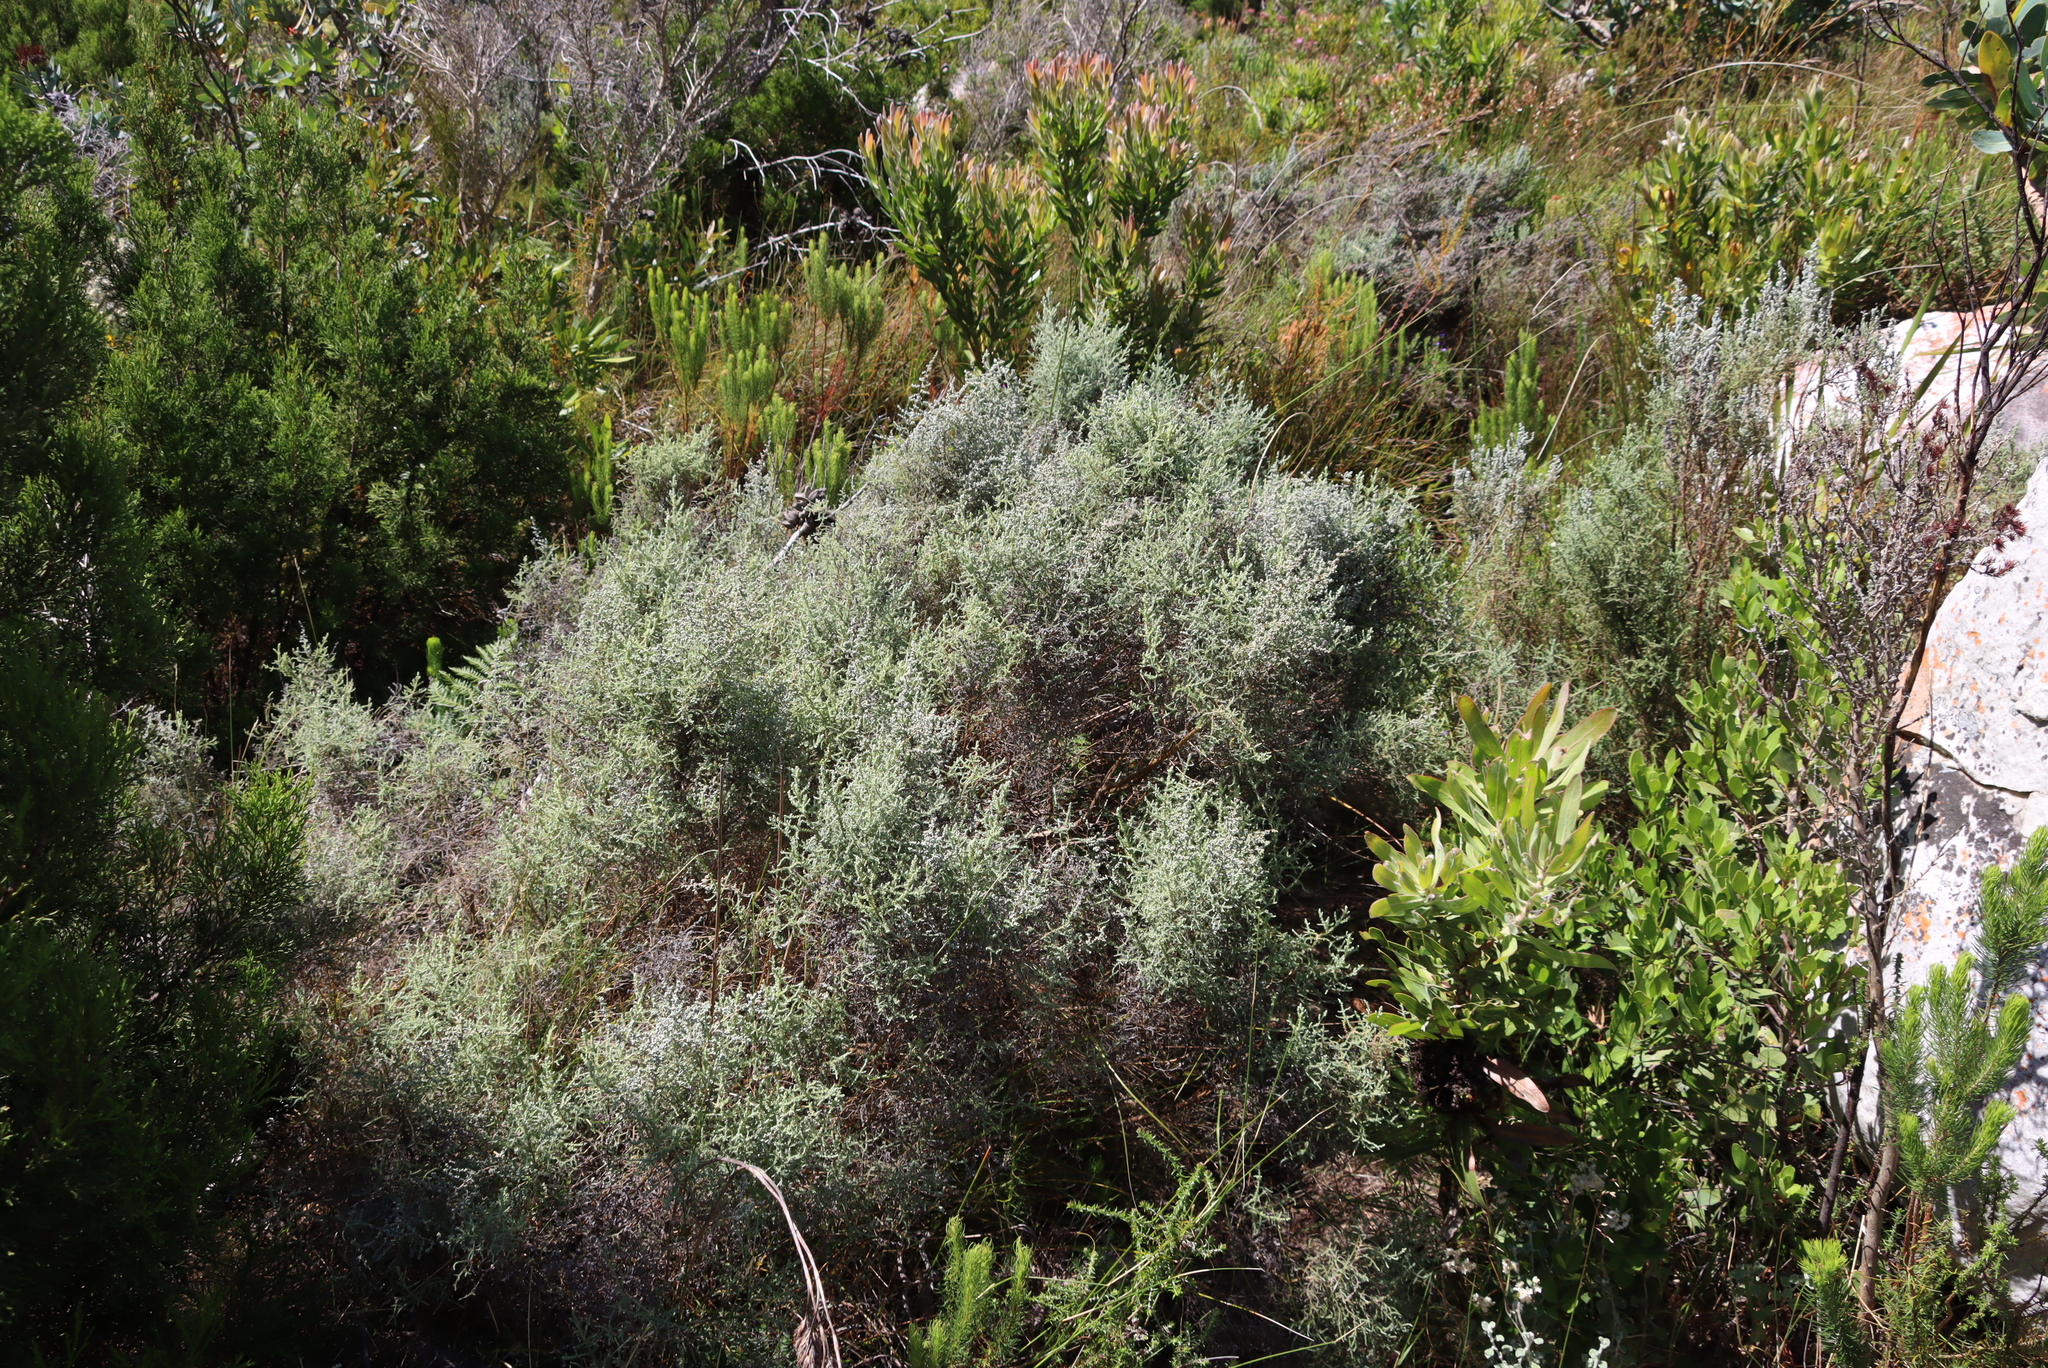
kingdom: Plantae
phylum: Tracheophyta
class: Magnoliopsida
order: Asterales
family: Asteraceae
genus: Seriphium
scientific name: Seriphium plumosum
